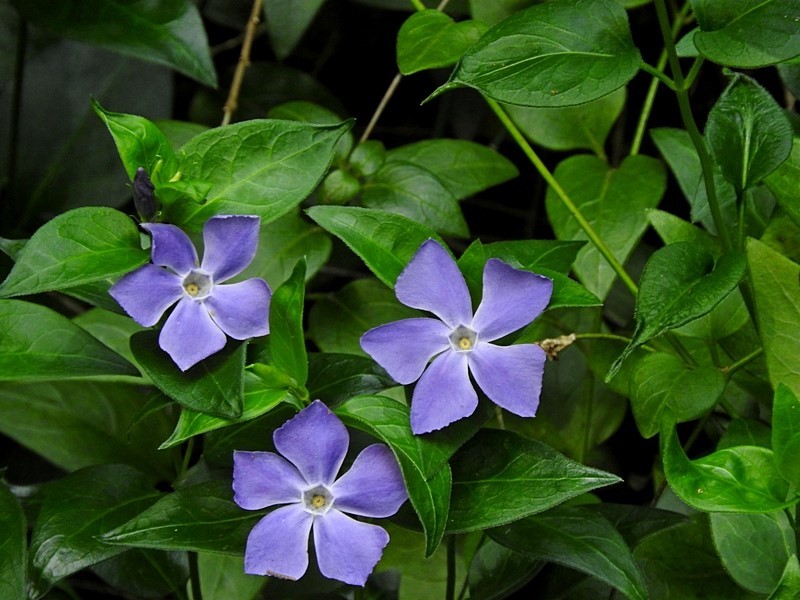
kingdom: Plantae
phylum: Tracheophyta
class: Magnoliopsida
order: Gentianales
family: Apocynaceae
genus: Vinca
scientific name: Vinca major
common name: Greater periwinkle
